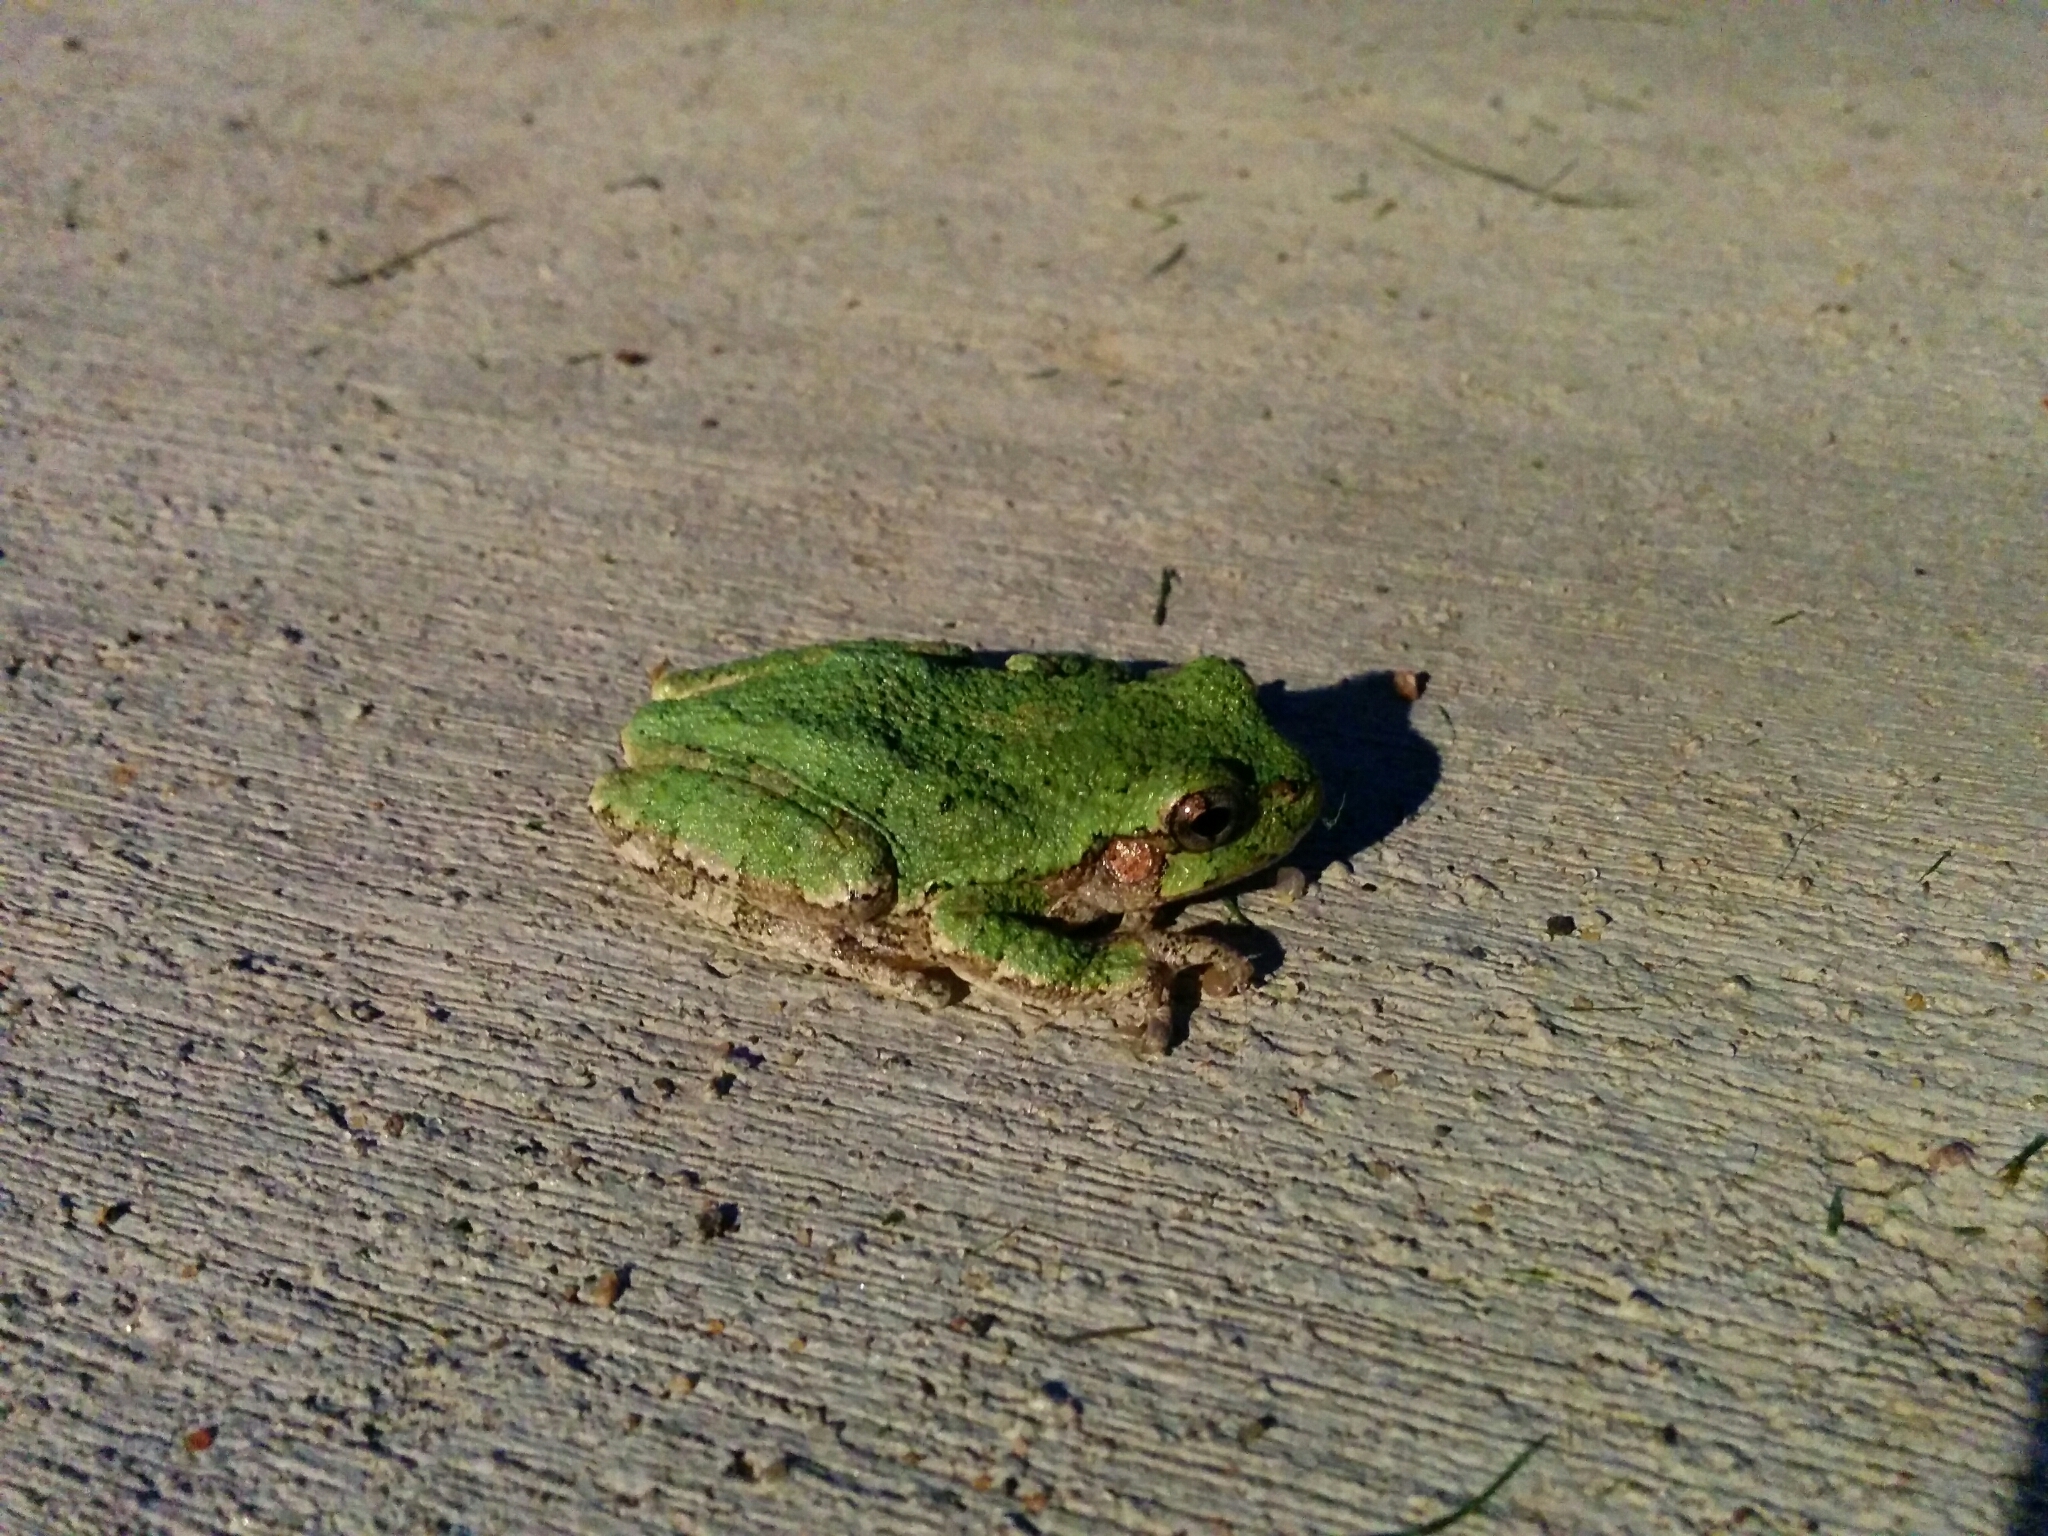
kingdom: Animalia
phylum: Chordata
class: Amphibia
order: Anura
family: Hylidae
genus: Hyla
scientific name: Hyla
